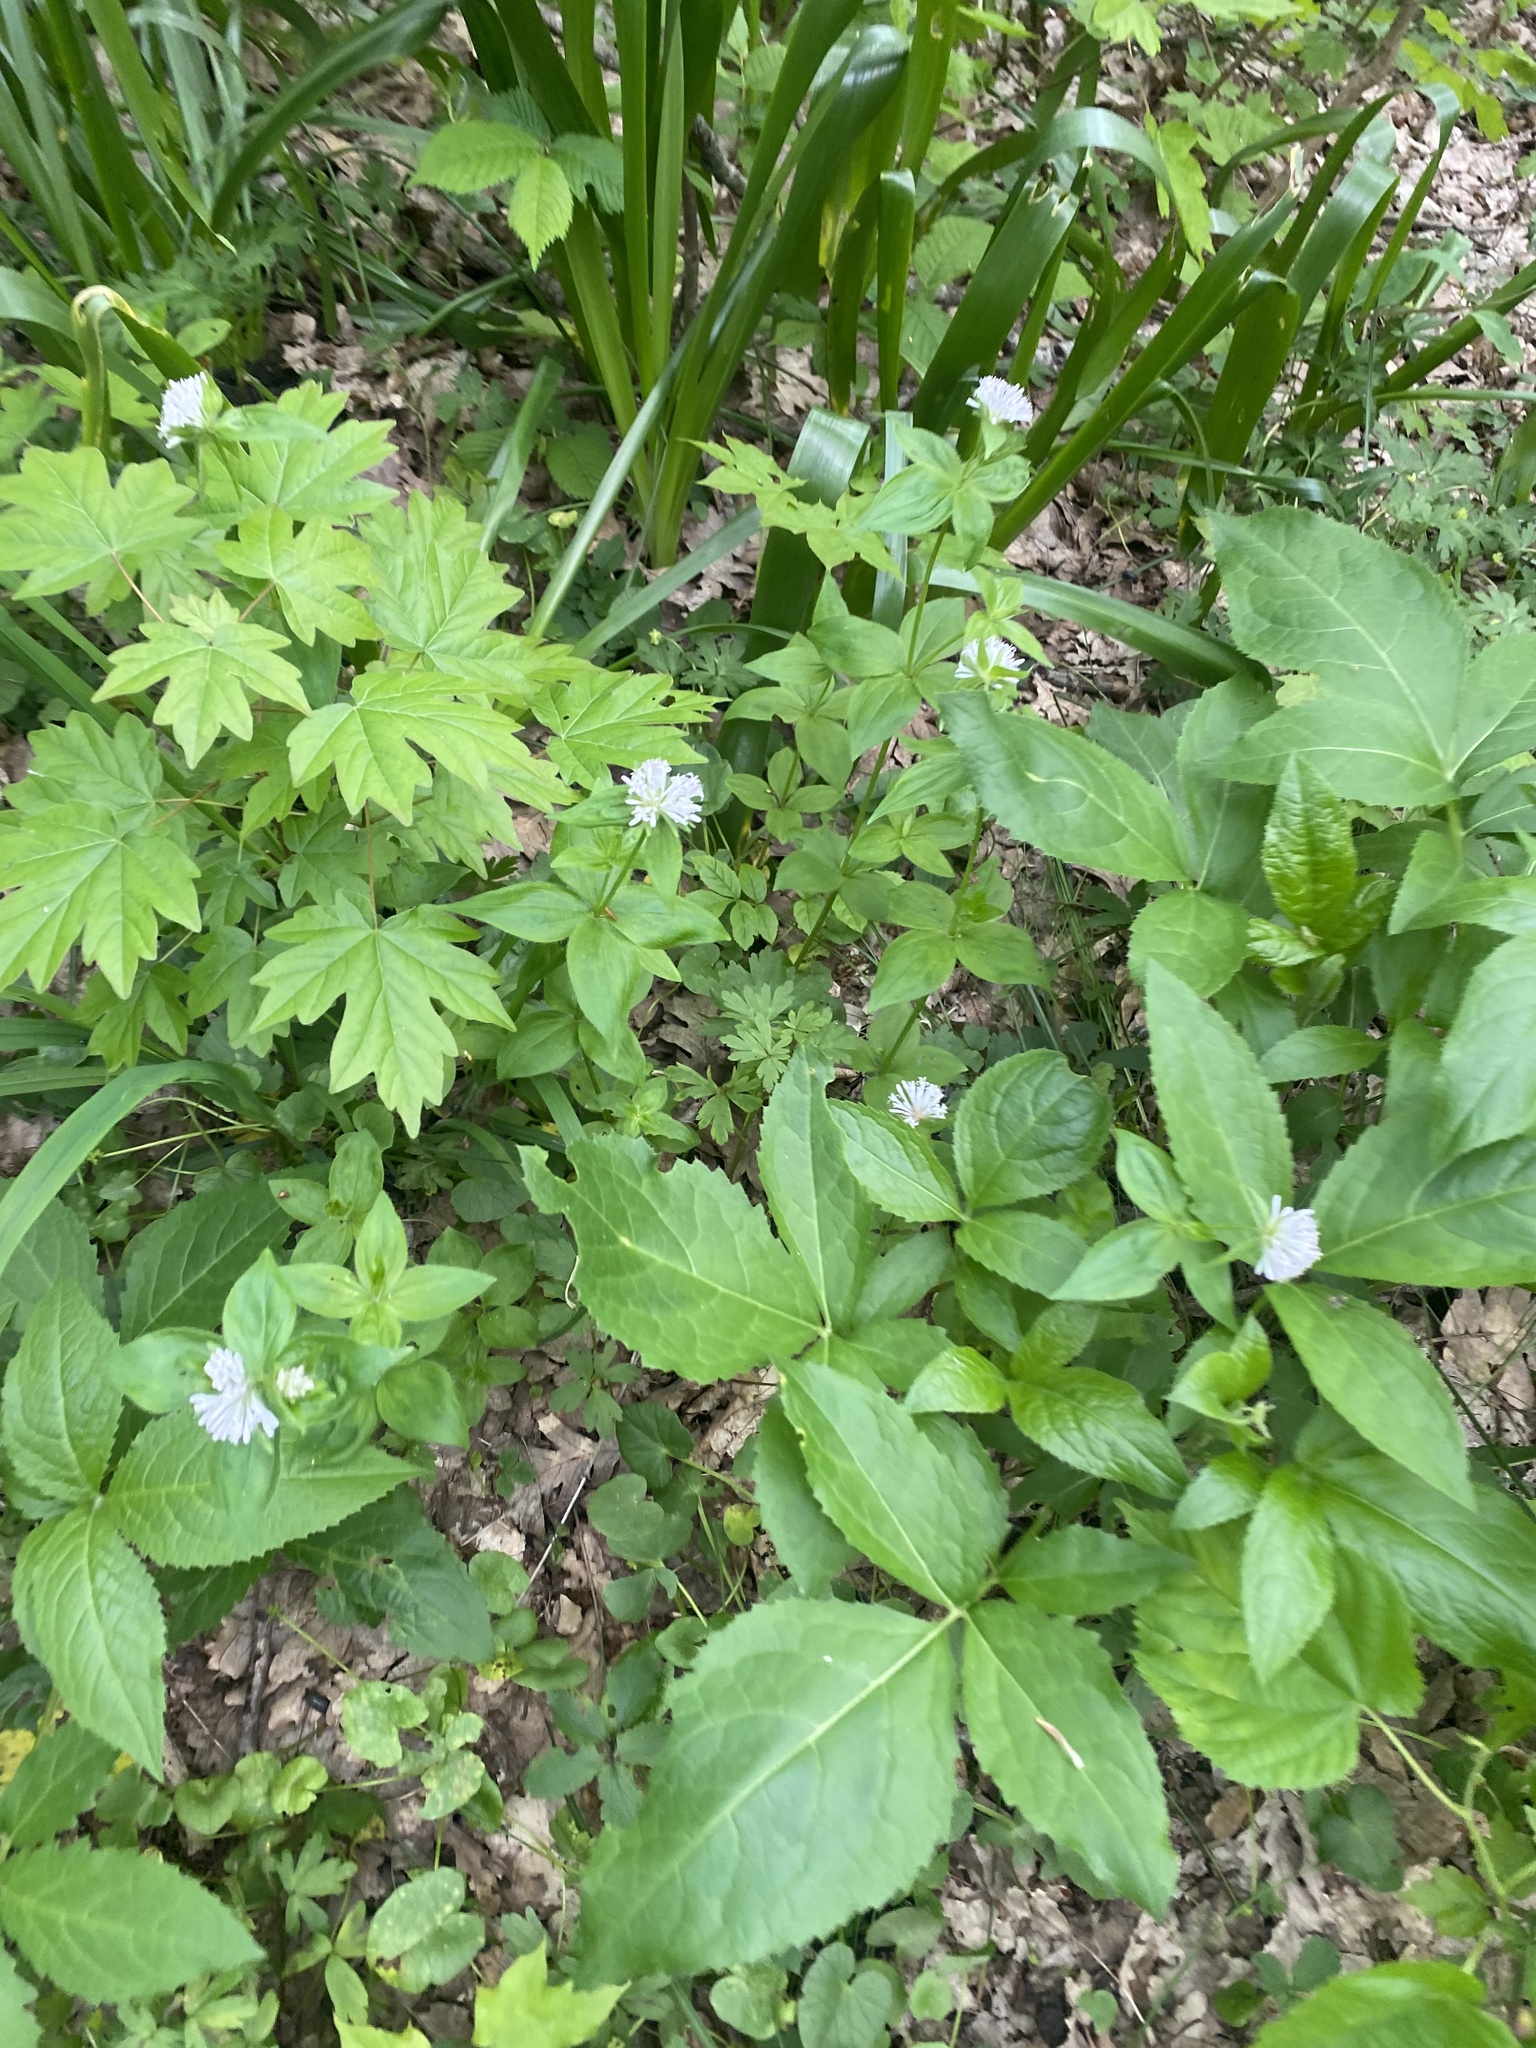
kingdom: Plantae
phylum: Tracheophyta
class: Magnoliopsida
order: Gentianales
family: Rubiaceae
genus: Asperula
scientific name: Asperula taurina
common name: Pink woodruff
